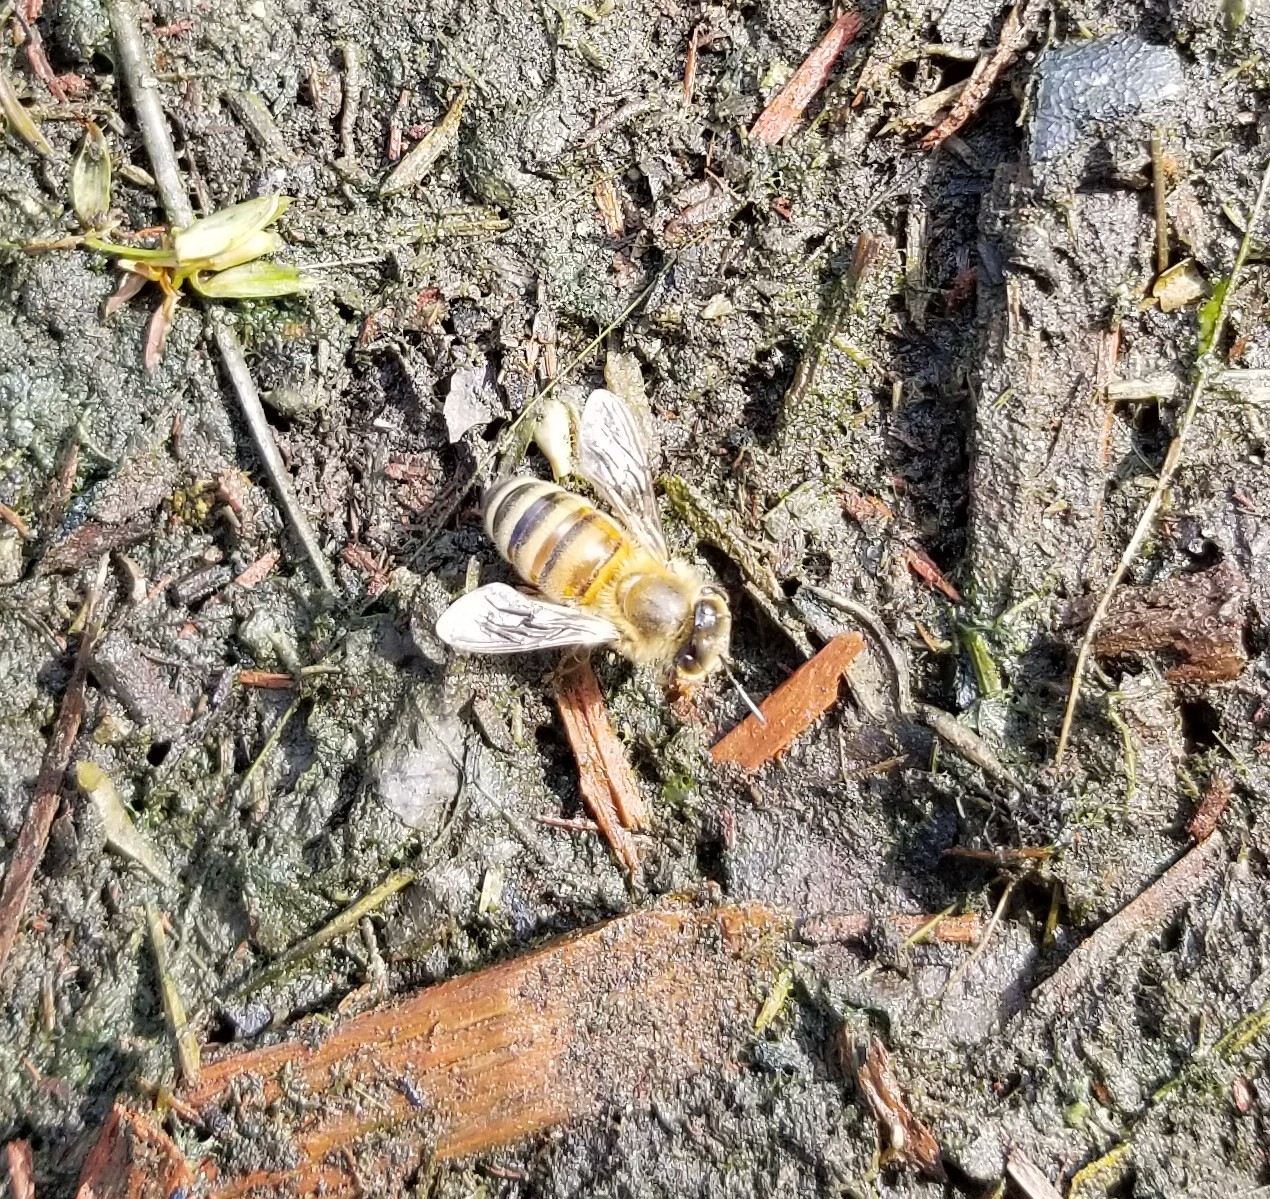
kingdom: Animalia
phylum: Arthropoda
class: Insecta
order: Hymenoptera
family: Apidae
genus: Apis
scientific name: Apis mellifera
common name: Honey bee
